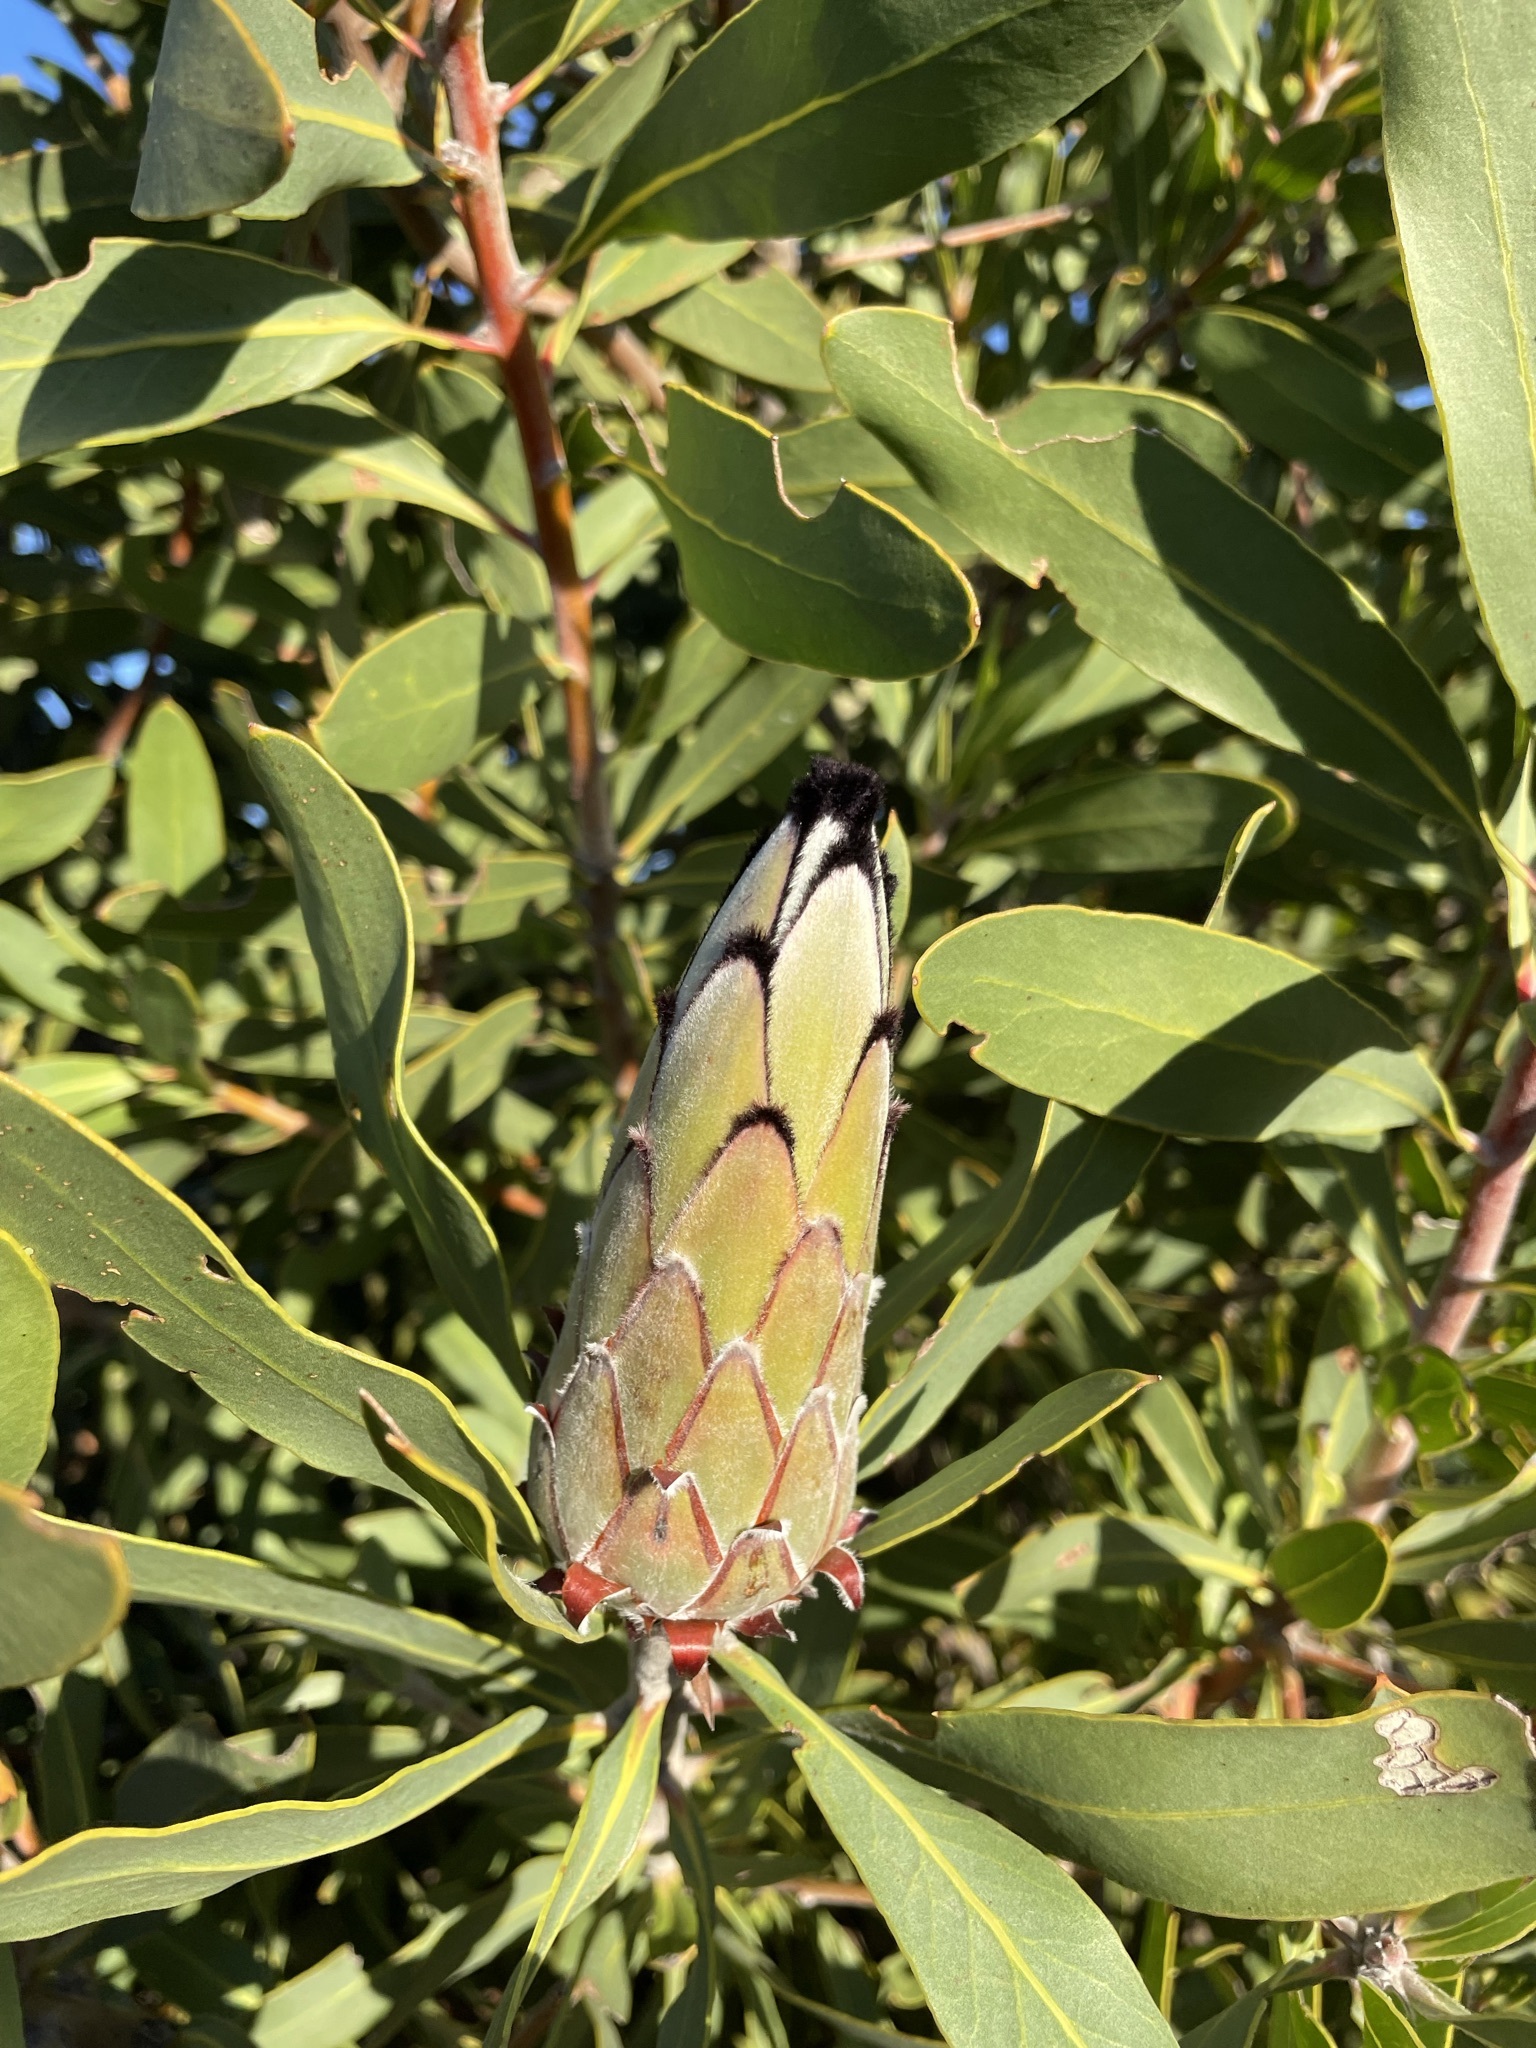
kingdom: Plantae
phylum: Tracheophyta
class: Magnoliopsida
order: Proteales
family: Proteaceae
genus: Protea
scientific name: Protea laurifolia
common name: Grey-leaf sugarbsh
